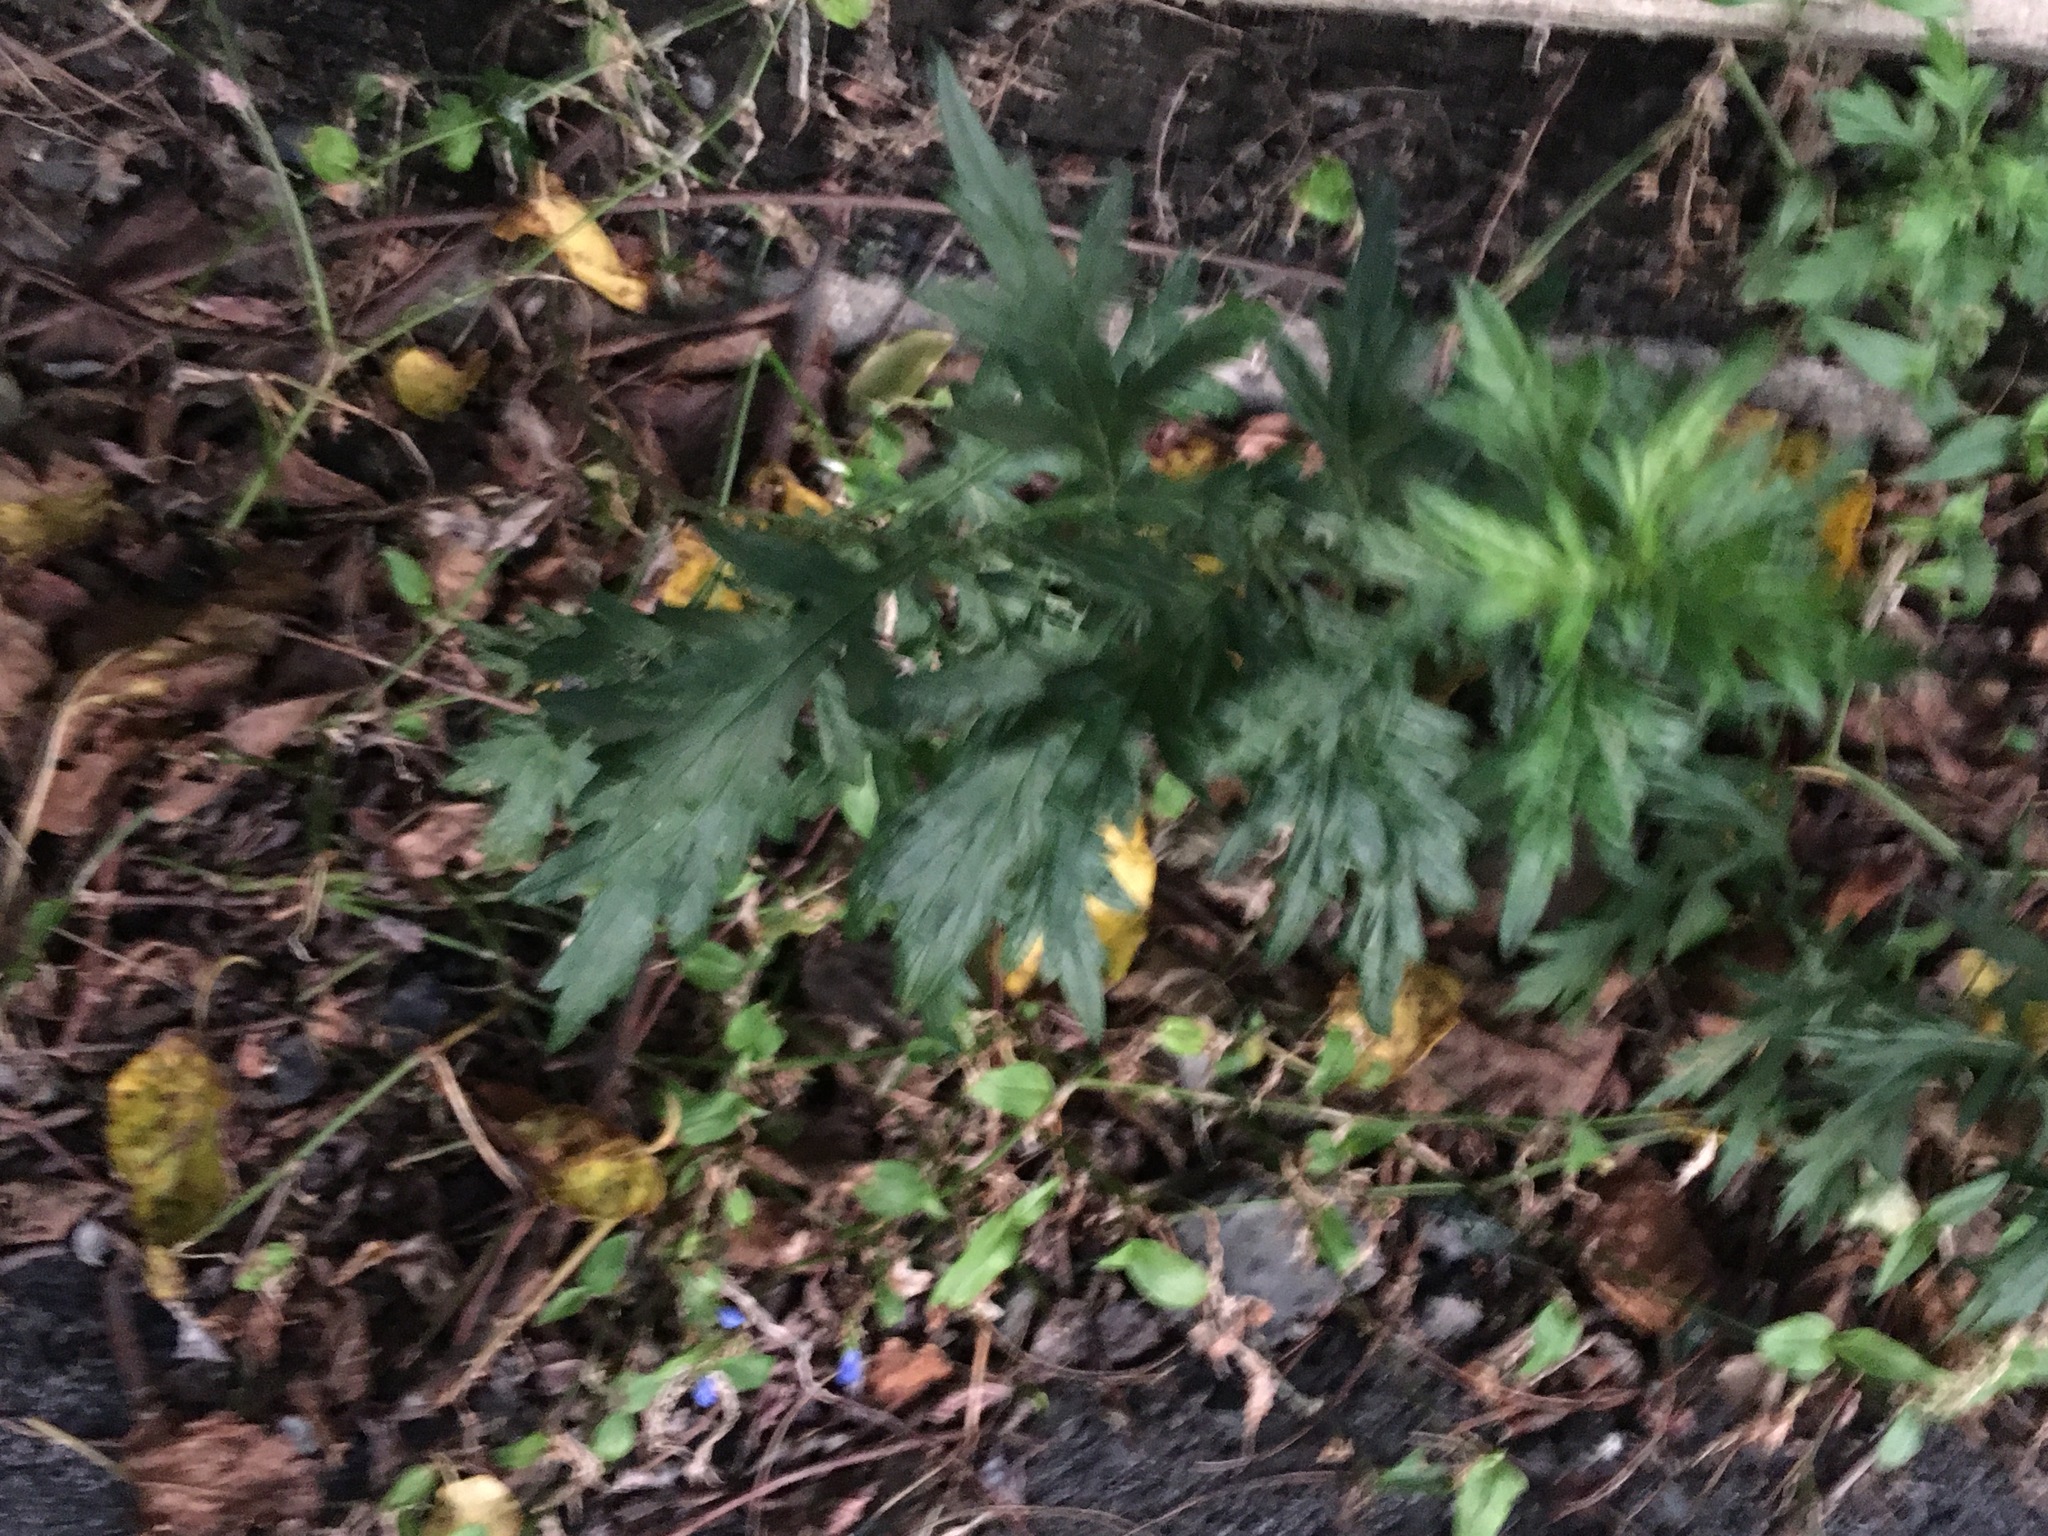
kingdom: Plantae
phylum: Tracheophyta
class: Magnoliopsida
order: Asterales
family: Asteraceae
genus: Artemisia
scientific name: Artemisia vulgaris
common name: Mugwort
